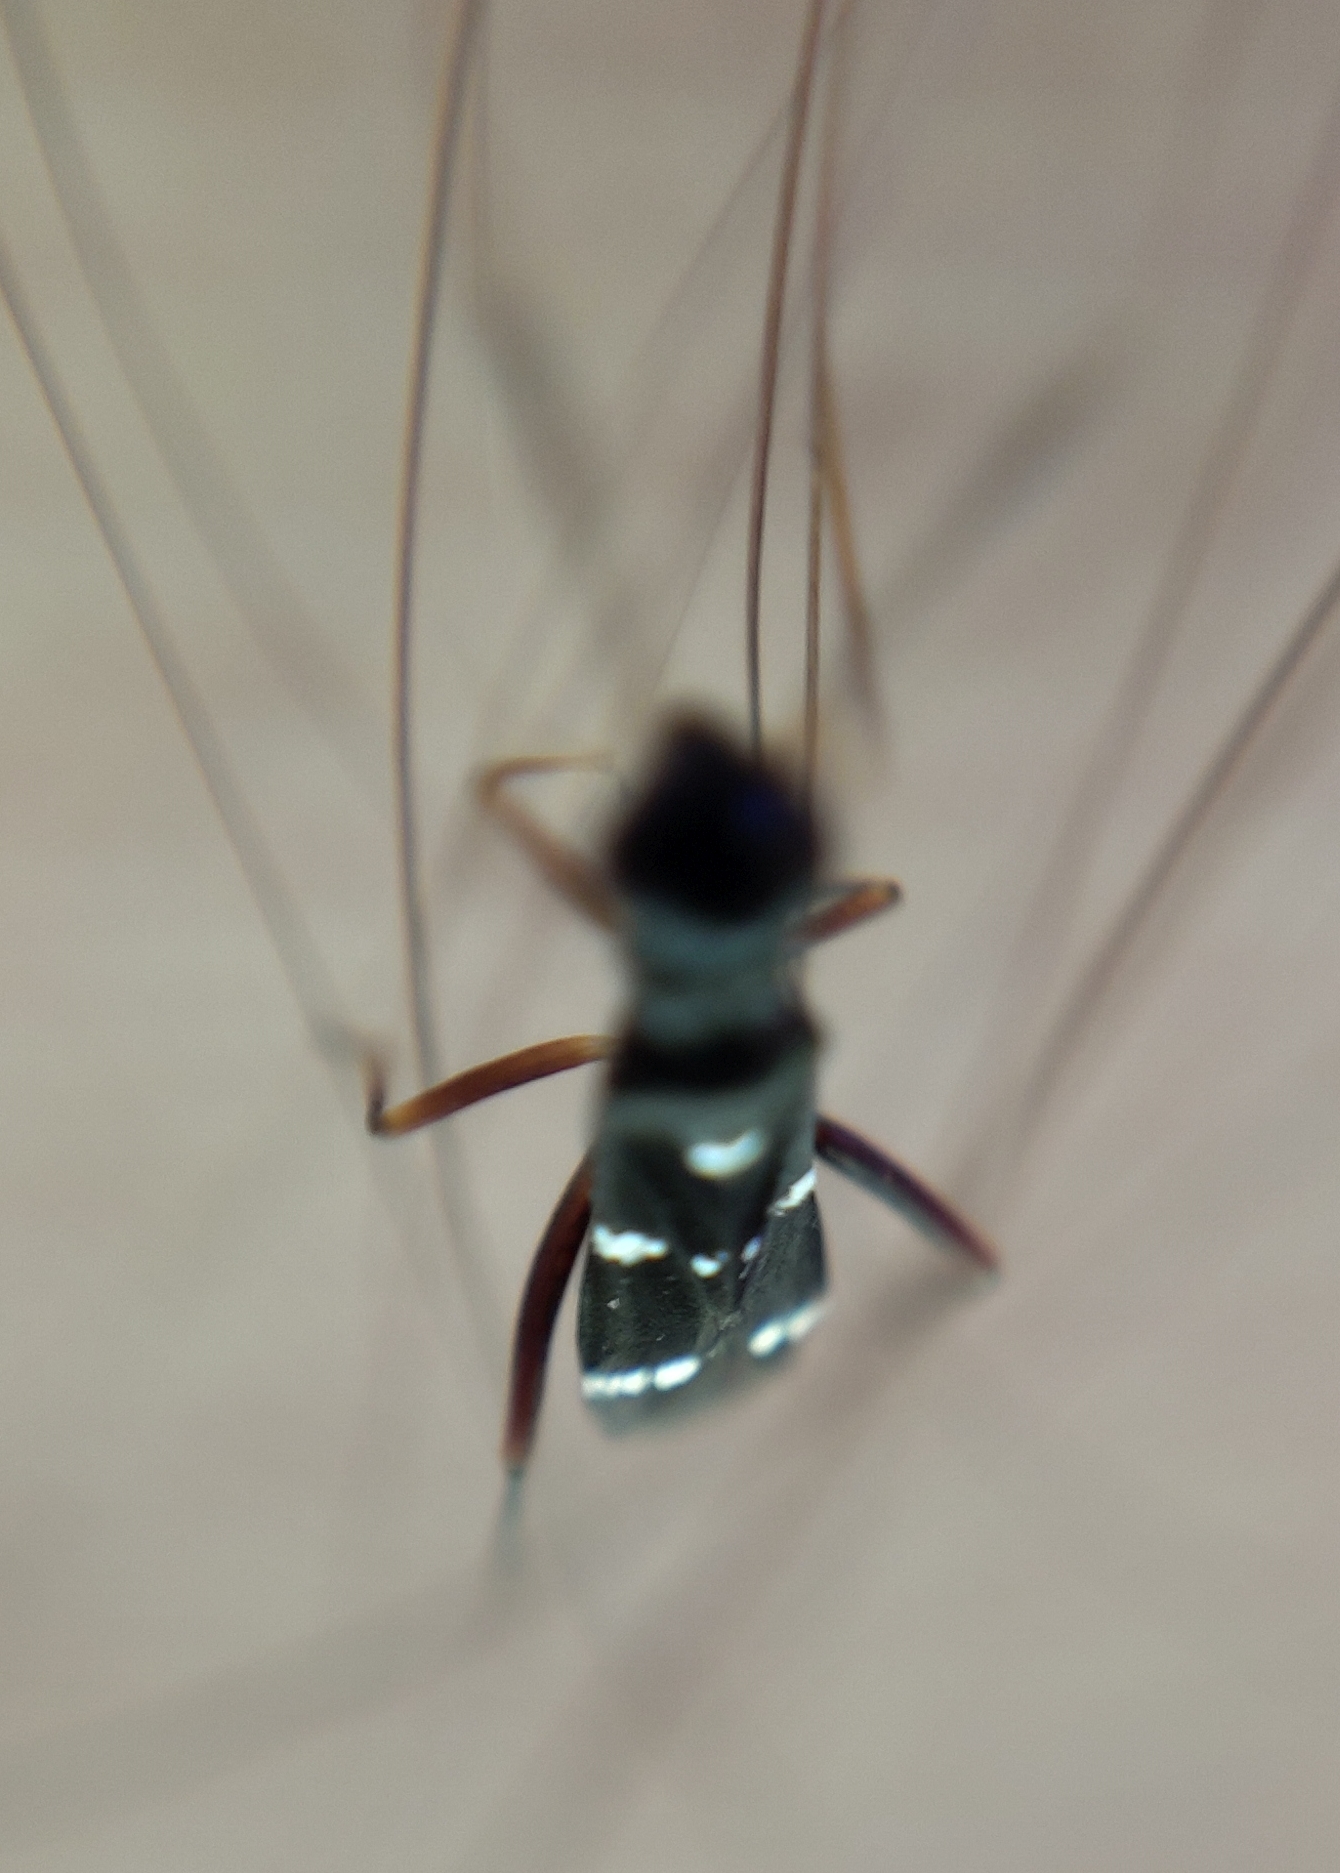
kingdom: Animalia
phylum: Arthropoda
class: Insecta
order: Hemiptera
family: Miridae
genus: Globiceps
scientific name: Globiceps sphaegiformis
